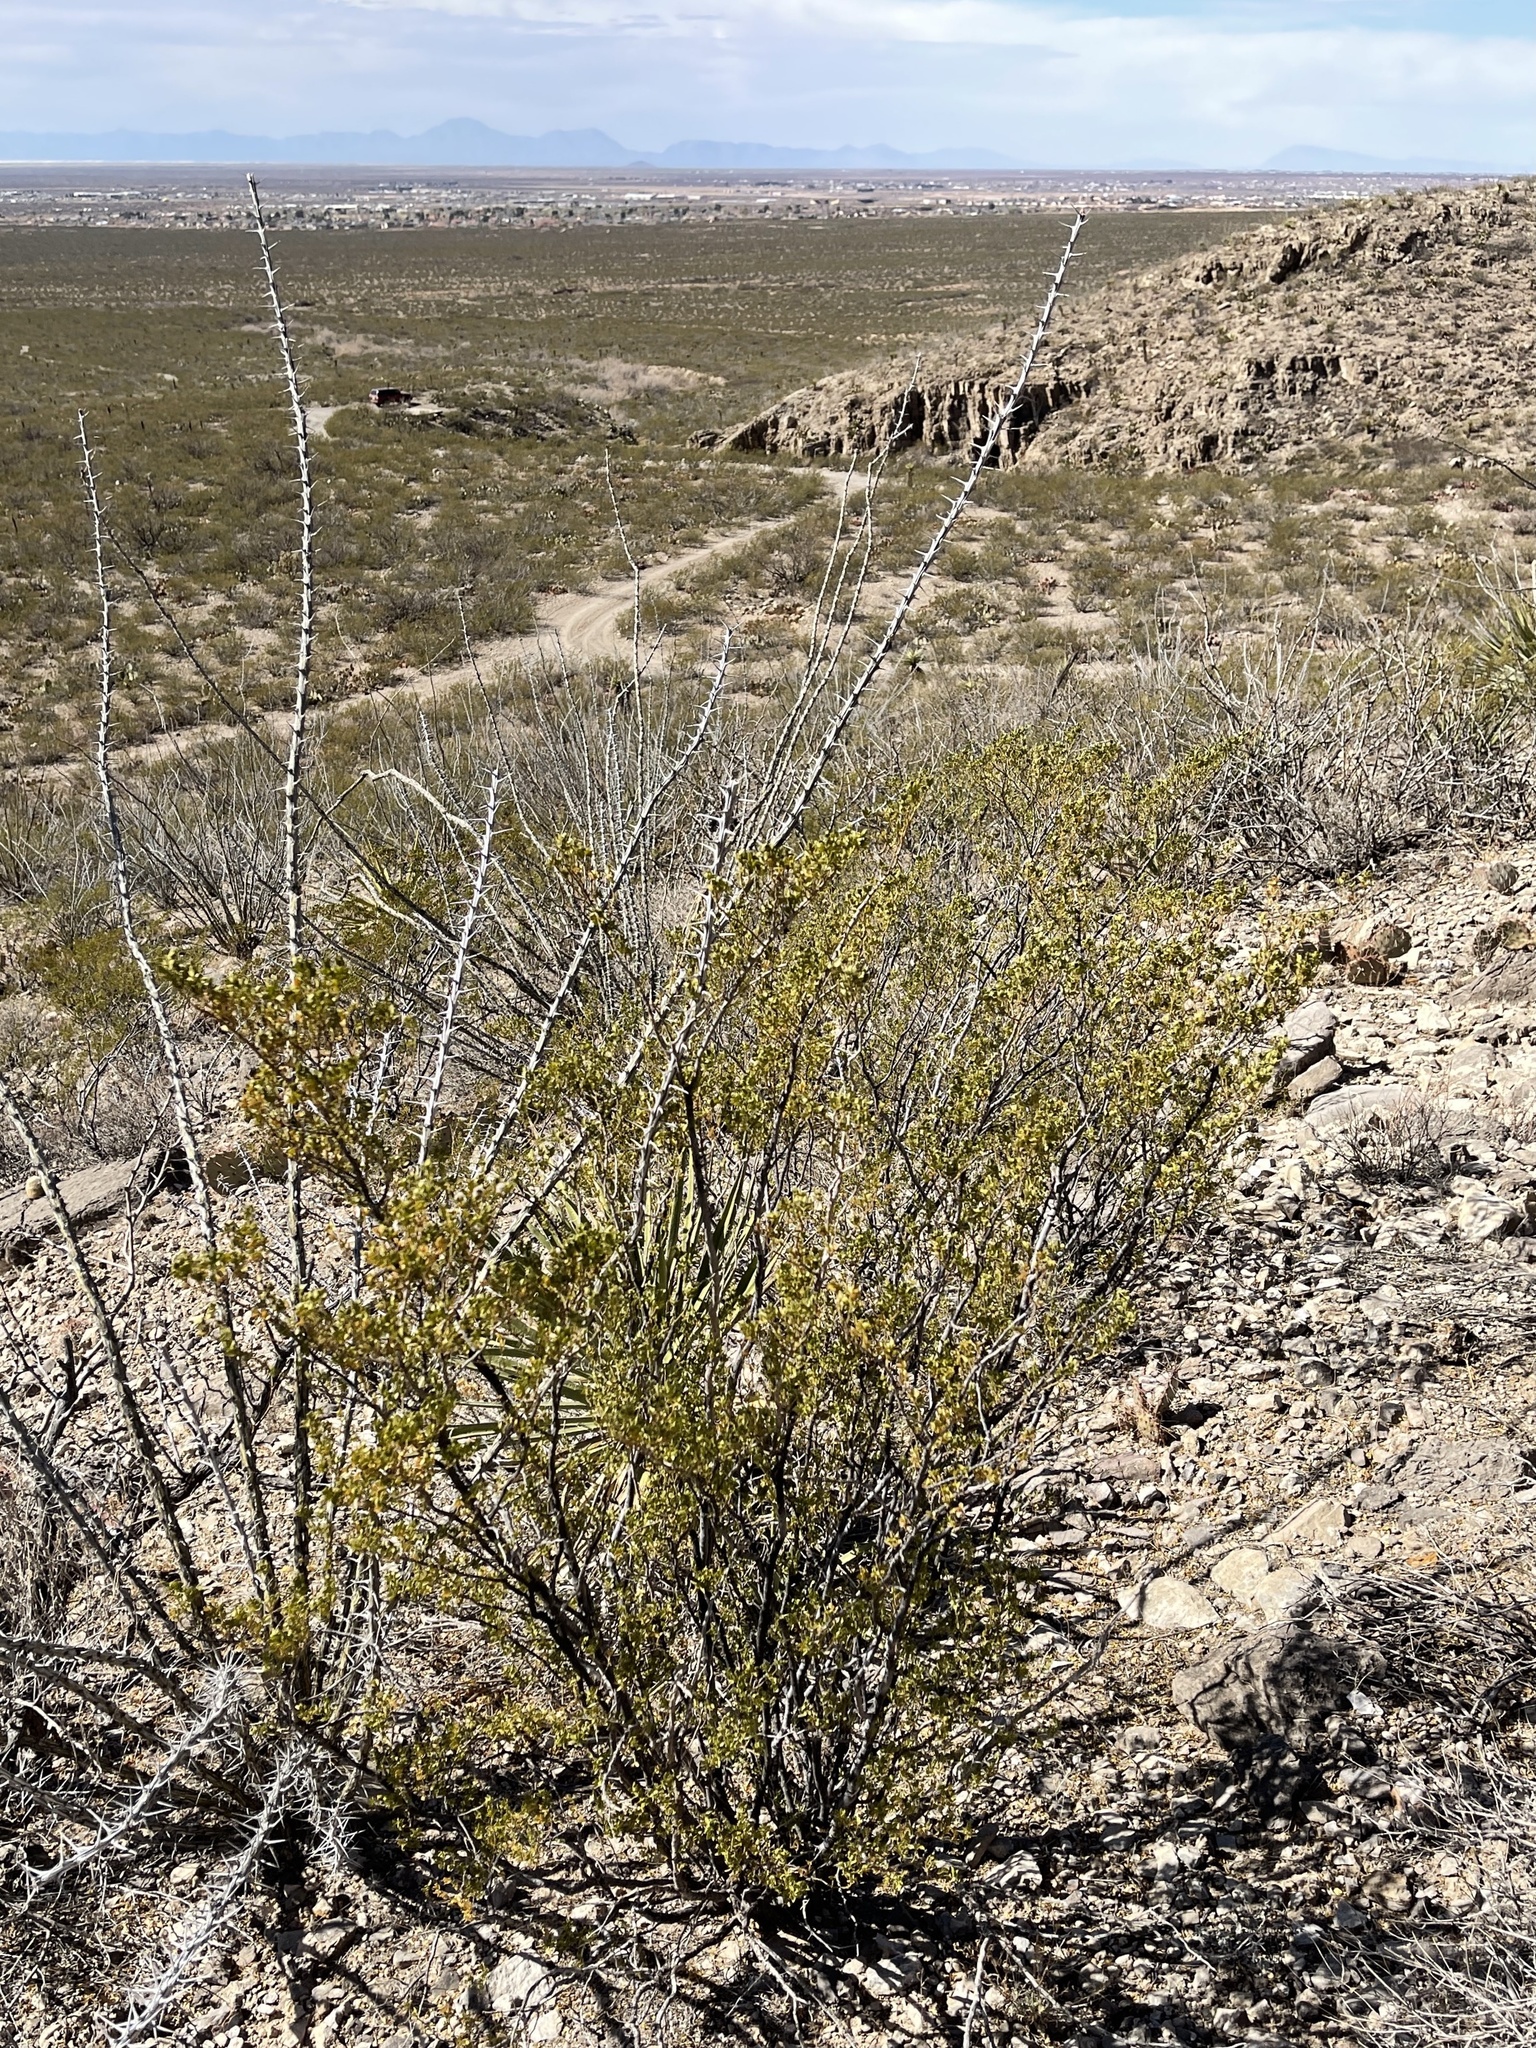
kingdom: Plantae
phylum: Tracheophyta
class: Magnoliopsida
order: Zygophyllales
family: Zygophyllaceae
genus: Larrea
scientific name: Larrea tridentata
